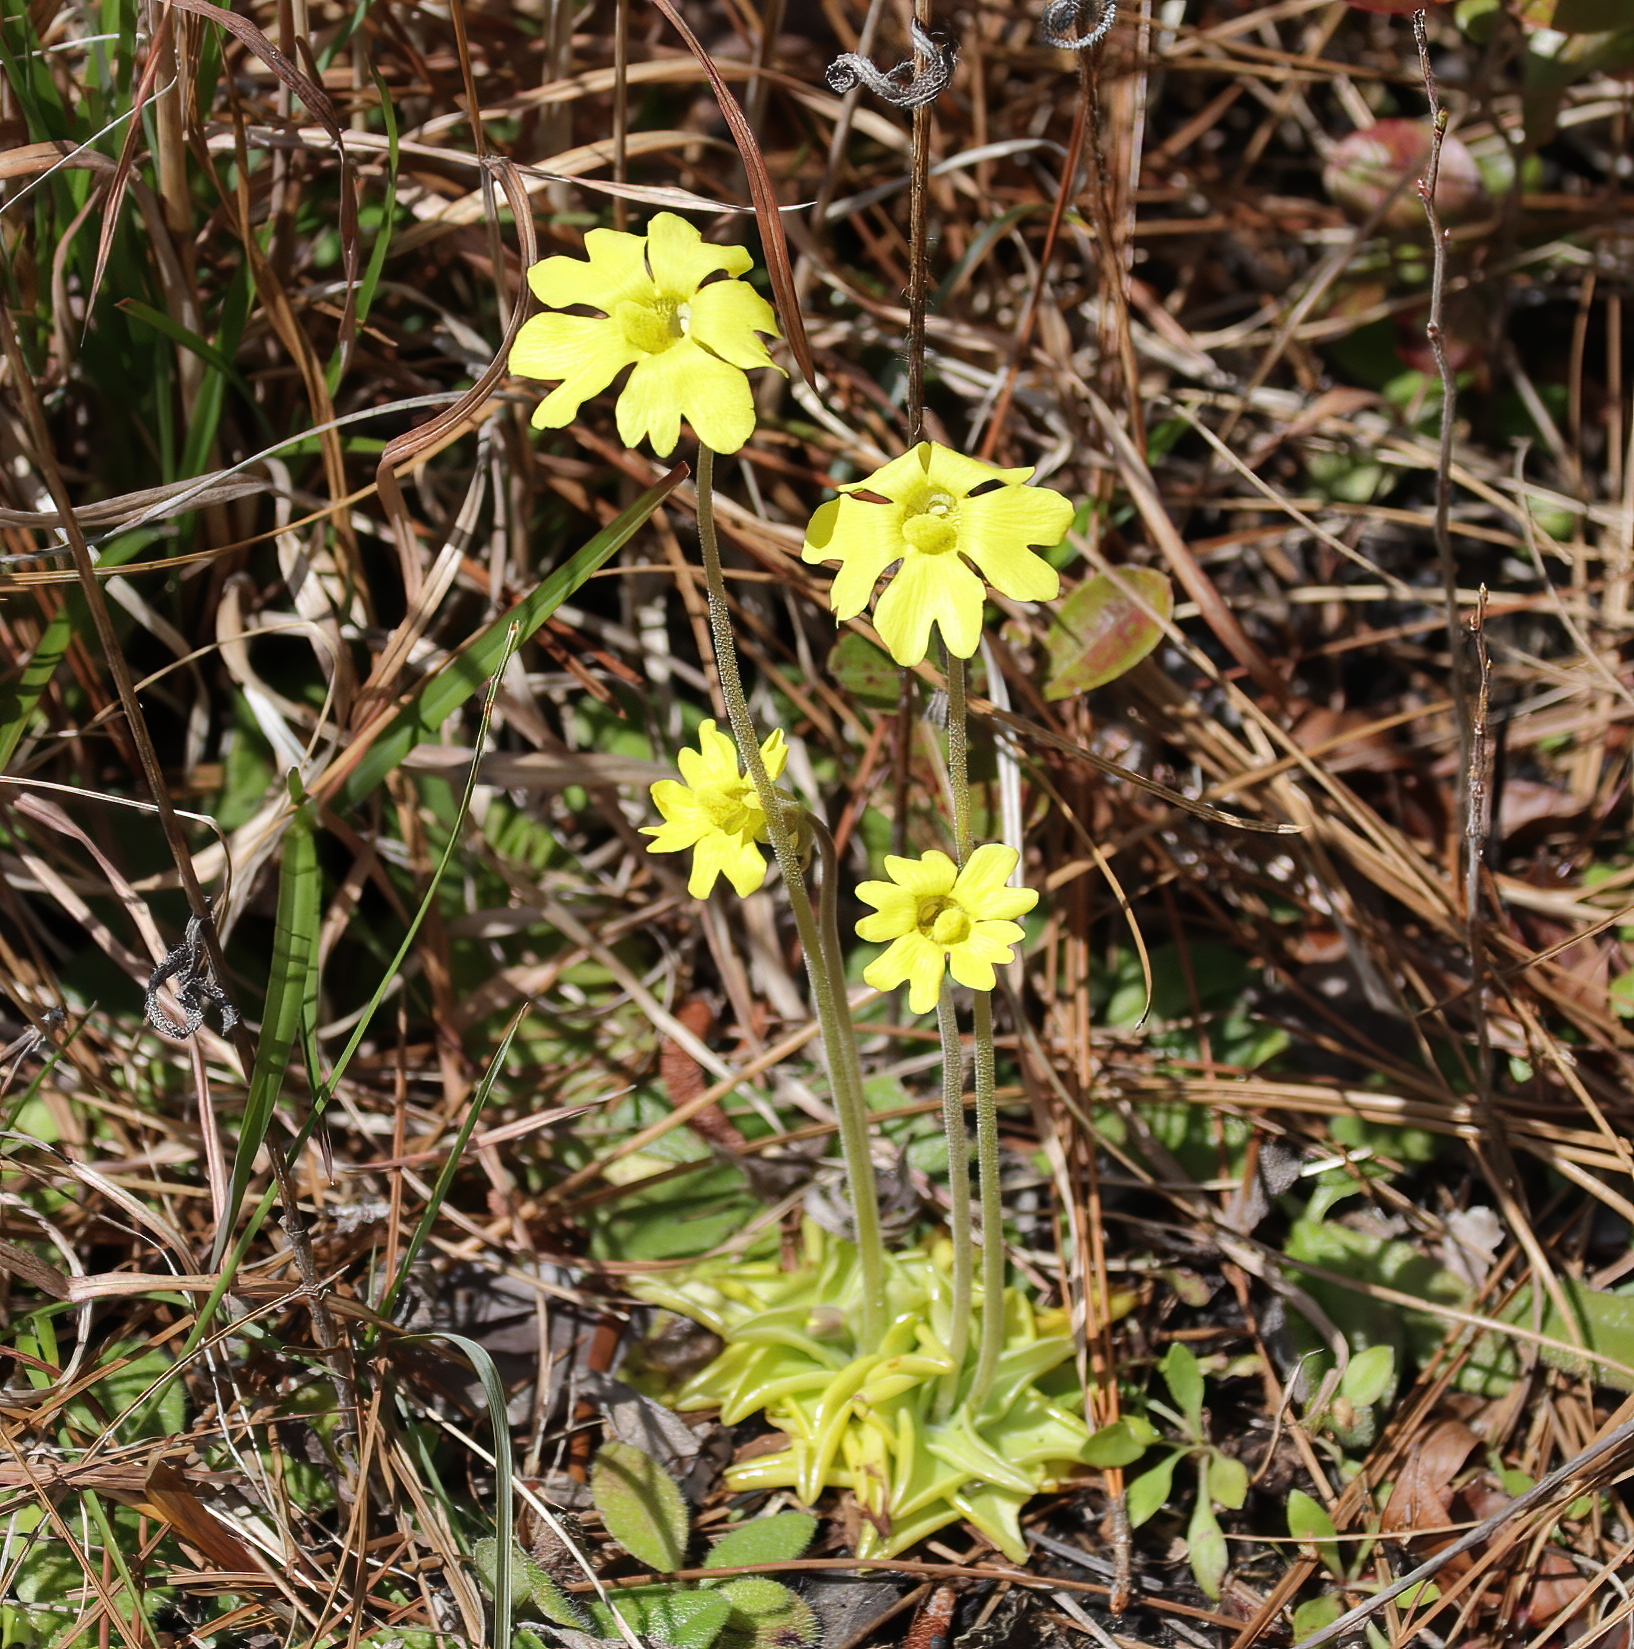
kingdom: Plantae
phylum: Tracheophyta
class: Magnoliopsida
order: Lamiales
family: Lentibulariaceae
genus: Pinguicula
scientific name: Pinguicula lutea
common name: Yellow butterwort
